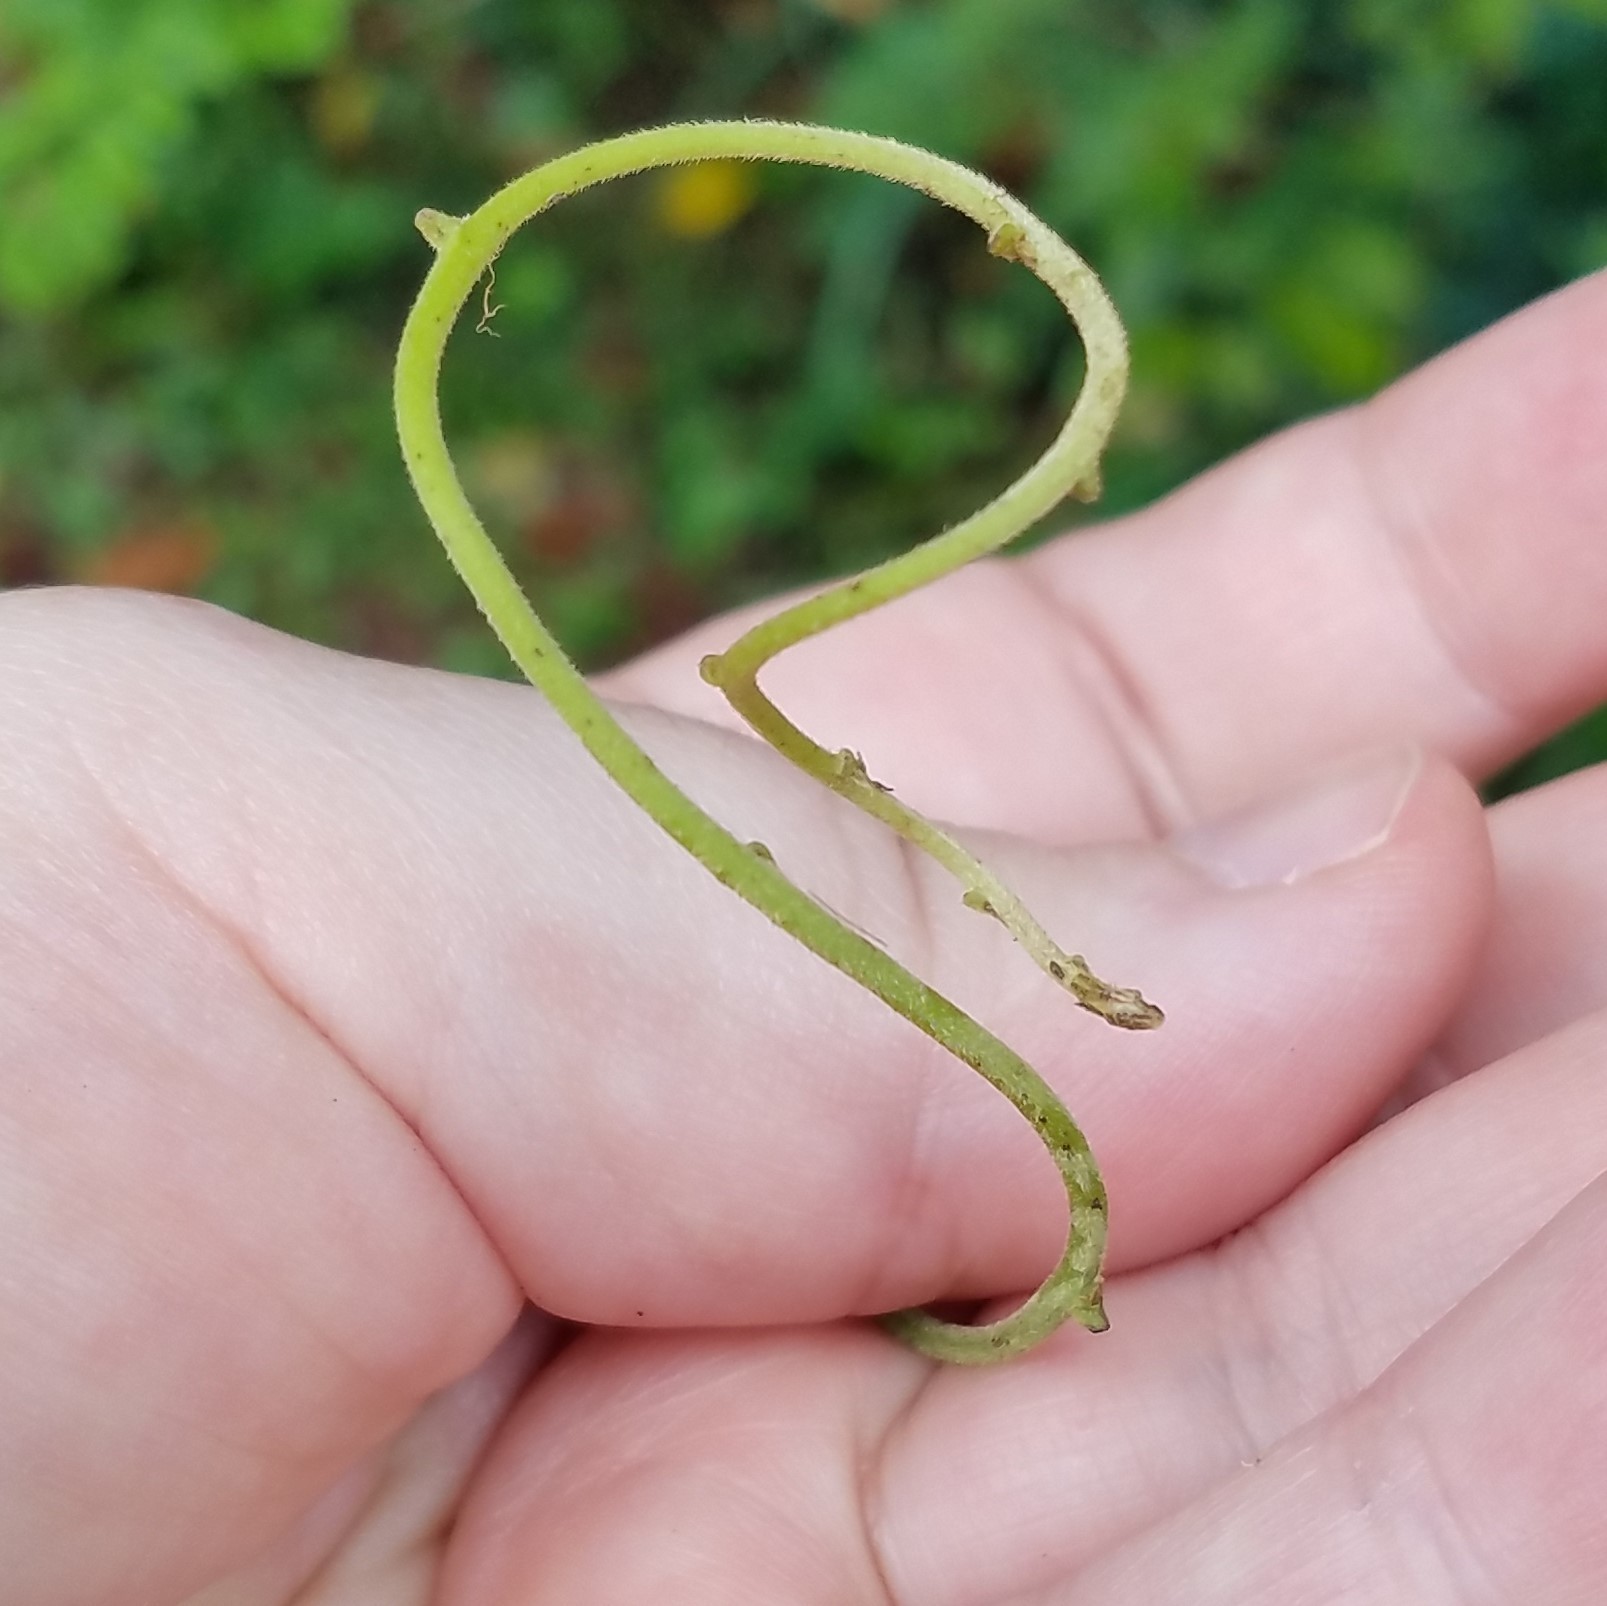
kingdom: Plantae
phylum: Tracheophyta
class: Magnoliopsida
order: Fabales
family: Fabaceae
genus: Wisteria
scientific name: Wisteria sinensis
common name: Chinese wisteria
